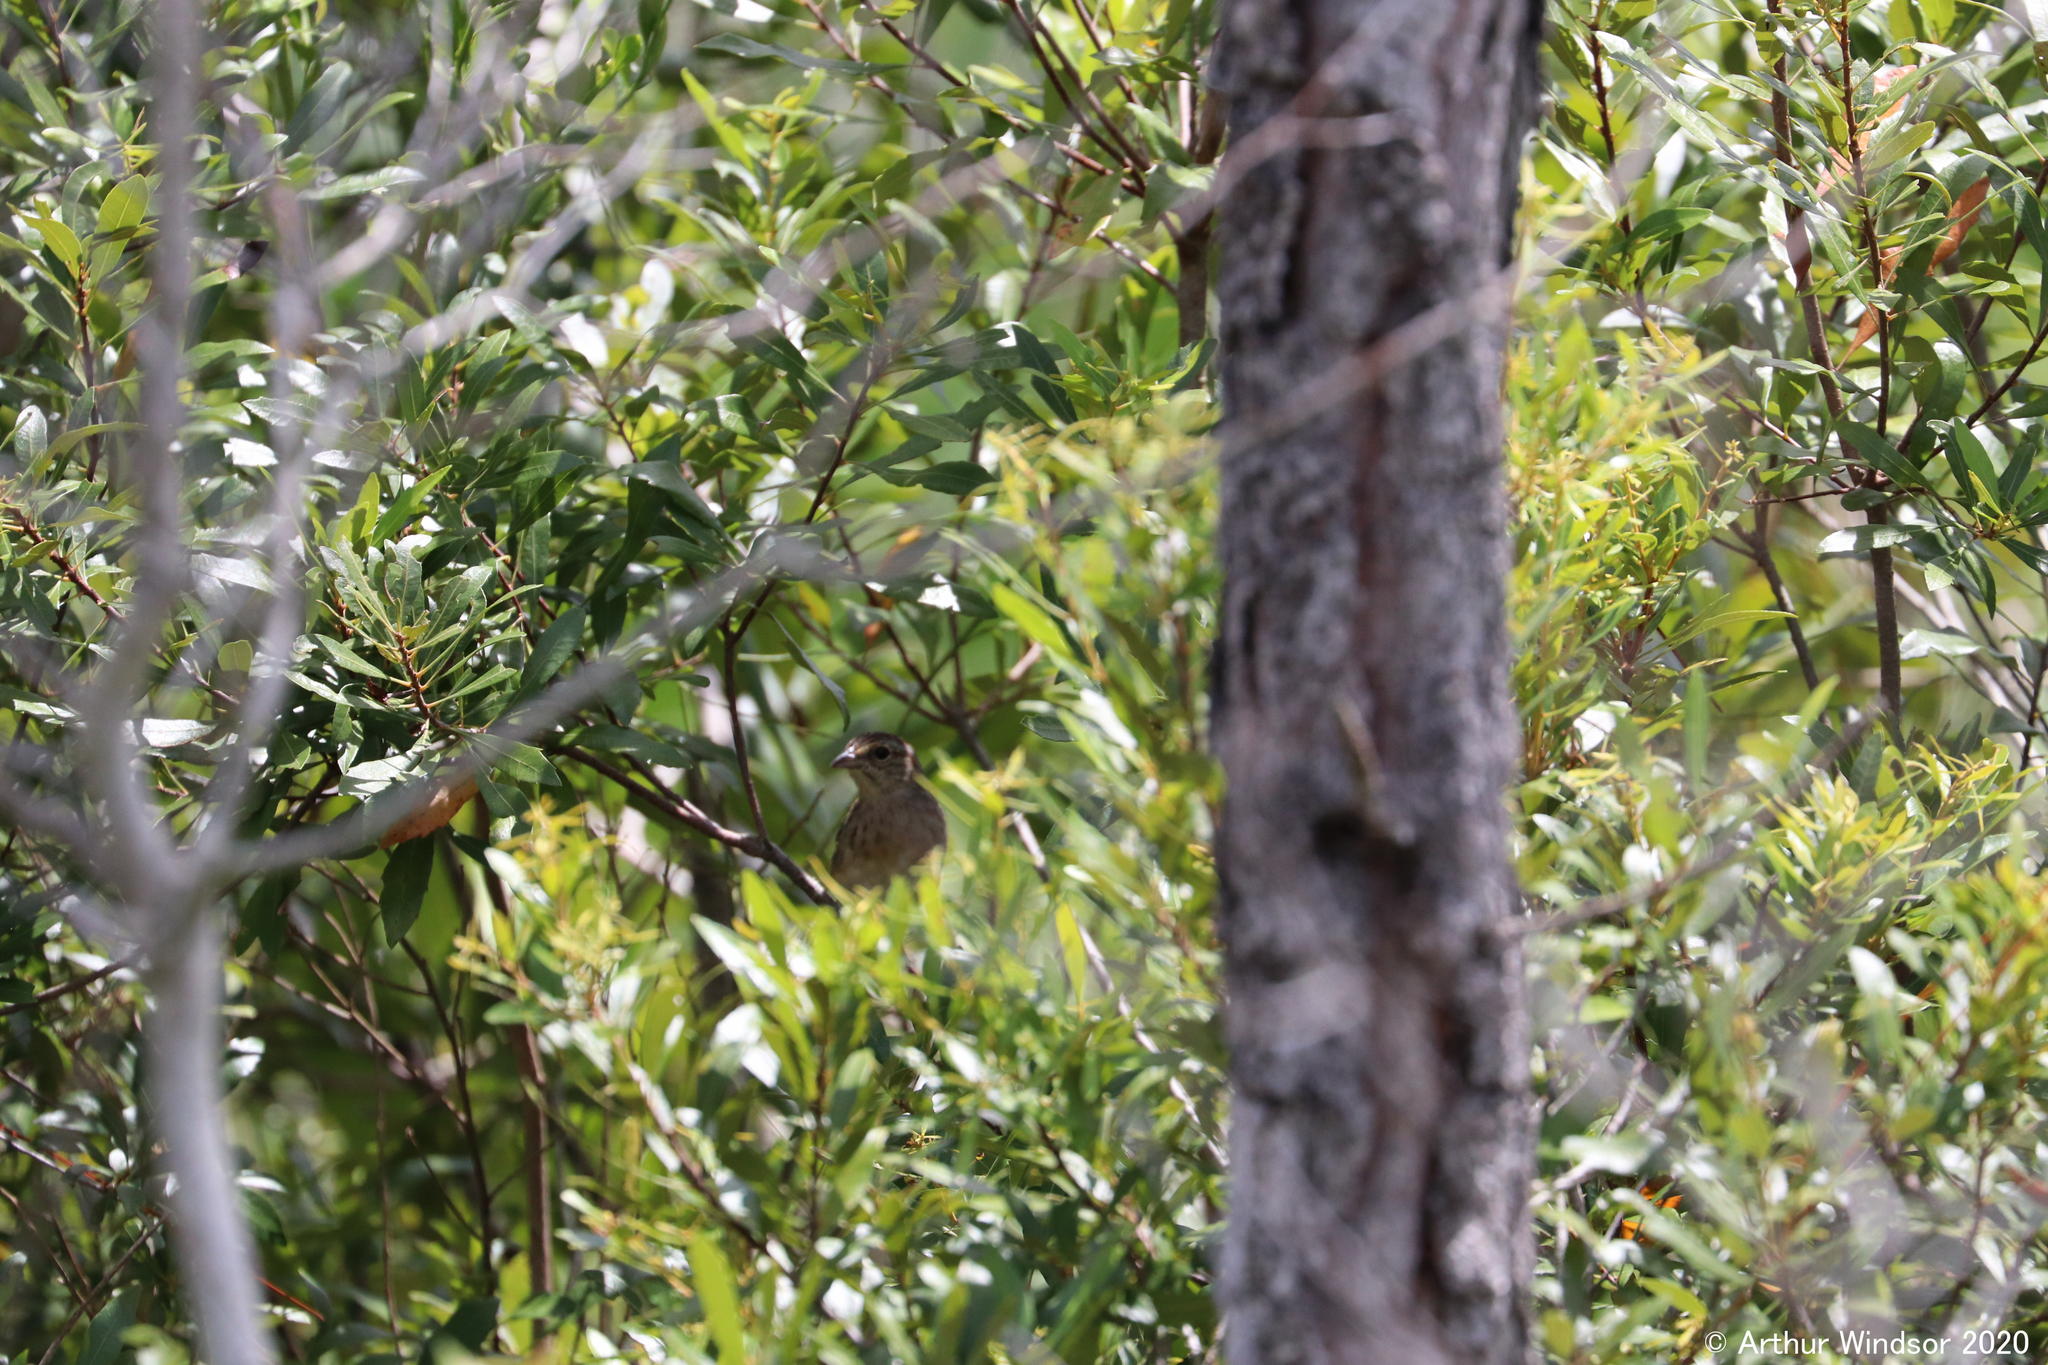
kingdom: Animalia
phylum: Chordata
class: Aves
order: Passeriformes
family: Passerellidae
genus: Peucaea
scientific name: Peucaea aestivalis
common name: Bachman's sparrow
